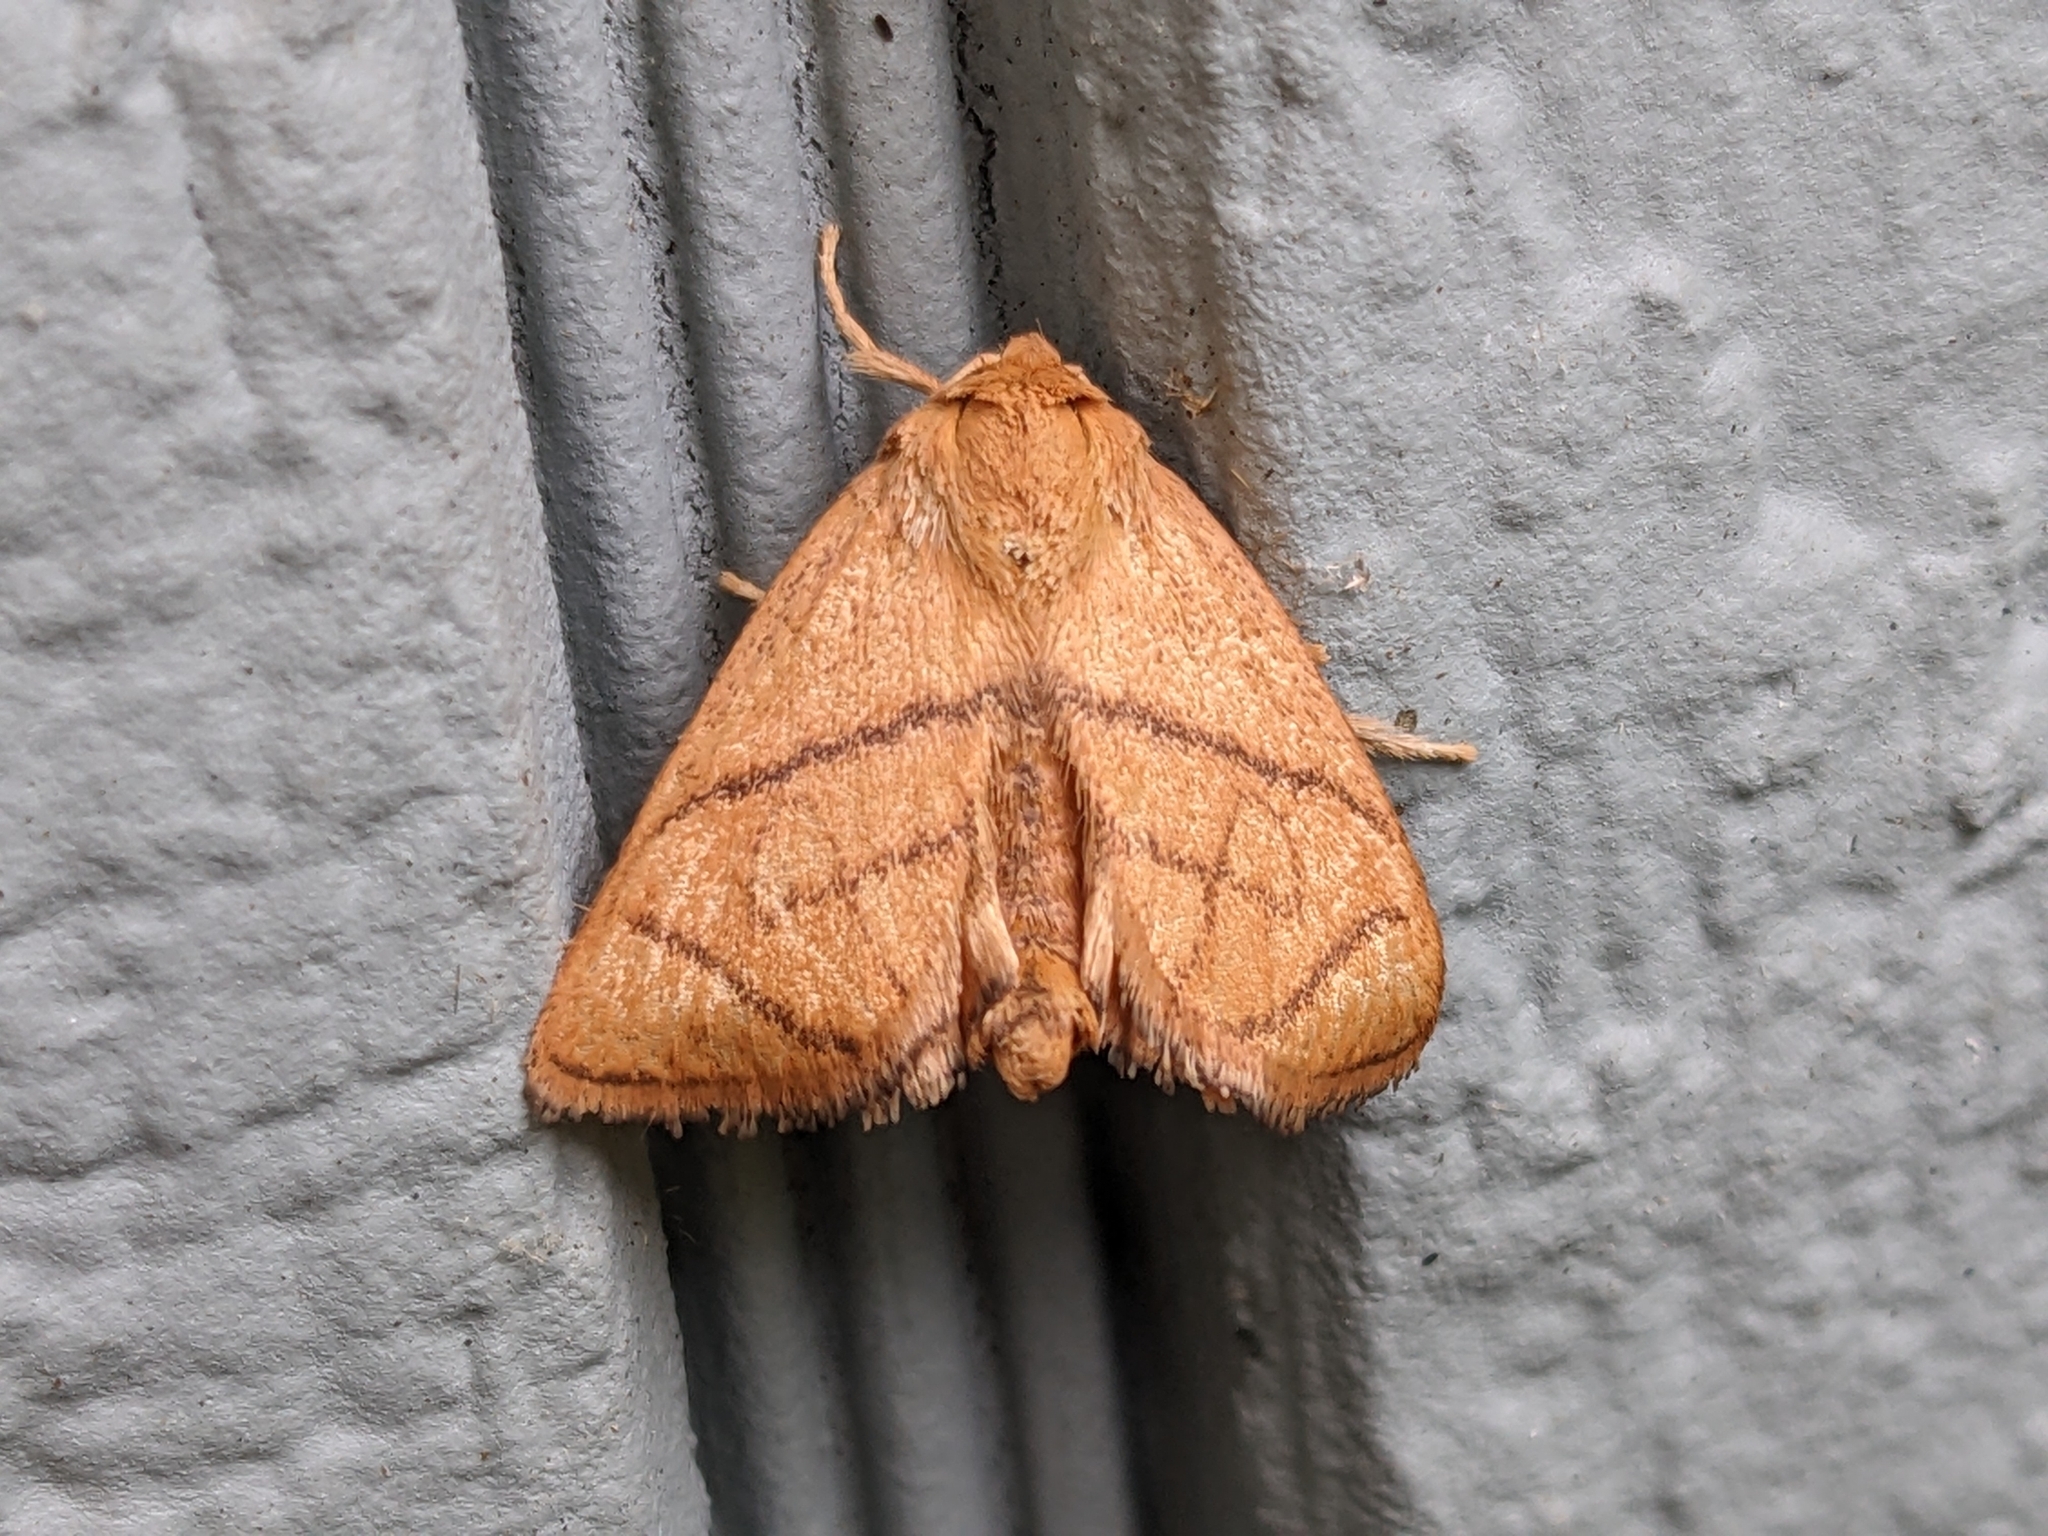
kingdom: Animalia
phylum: Arthropoda
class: Insecta
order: Lepidoptera
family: Limacodidae
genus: Apoda
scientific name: Apoda y-inversa
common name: Yellow-collared slug moth
